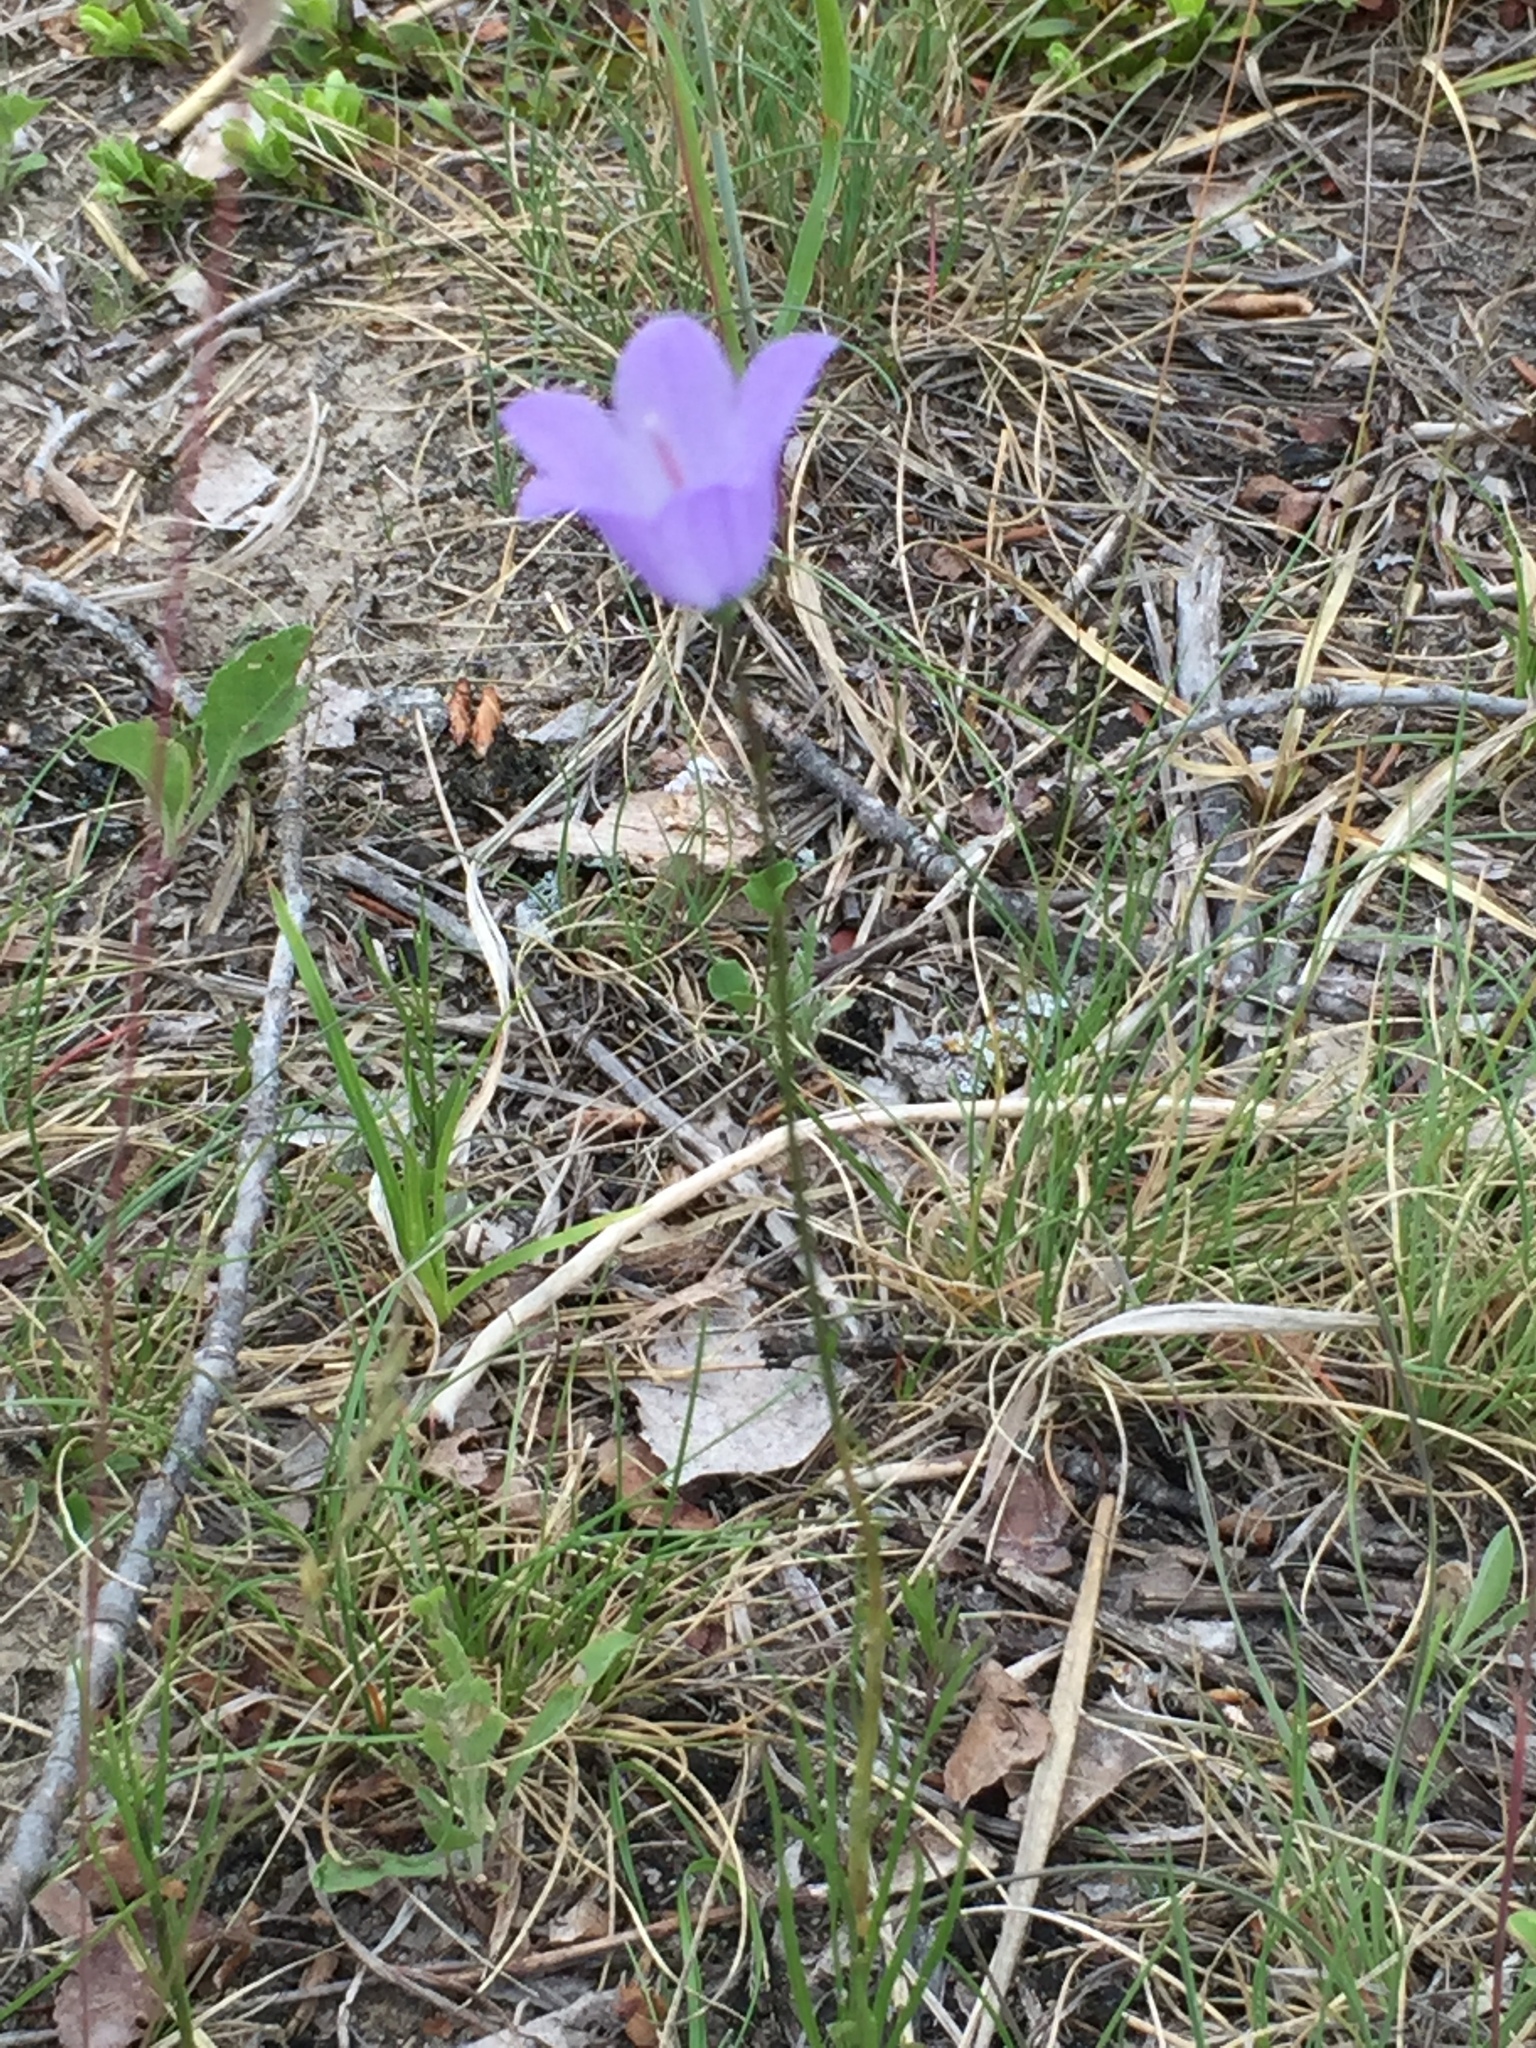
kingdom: Plantae
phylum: Tracheophyta
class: Magnoliopsida
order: Asterales
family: Campanulaceae
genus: Campanula
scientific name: Campanula petiolata
